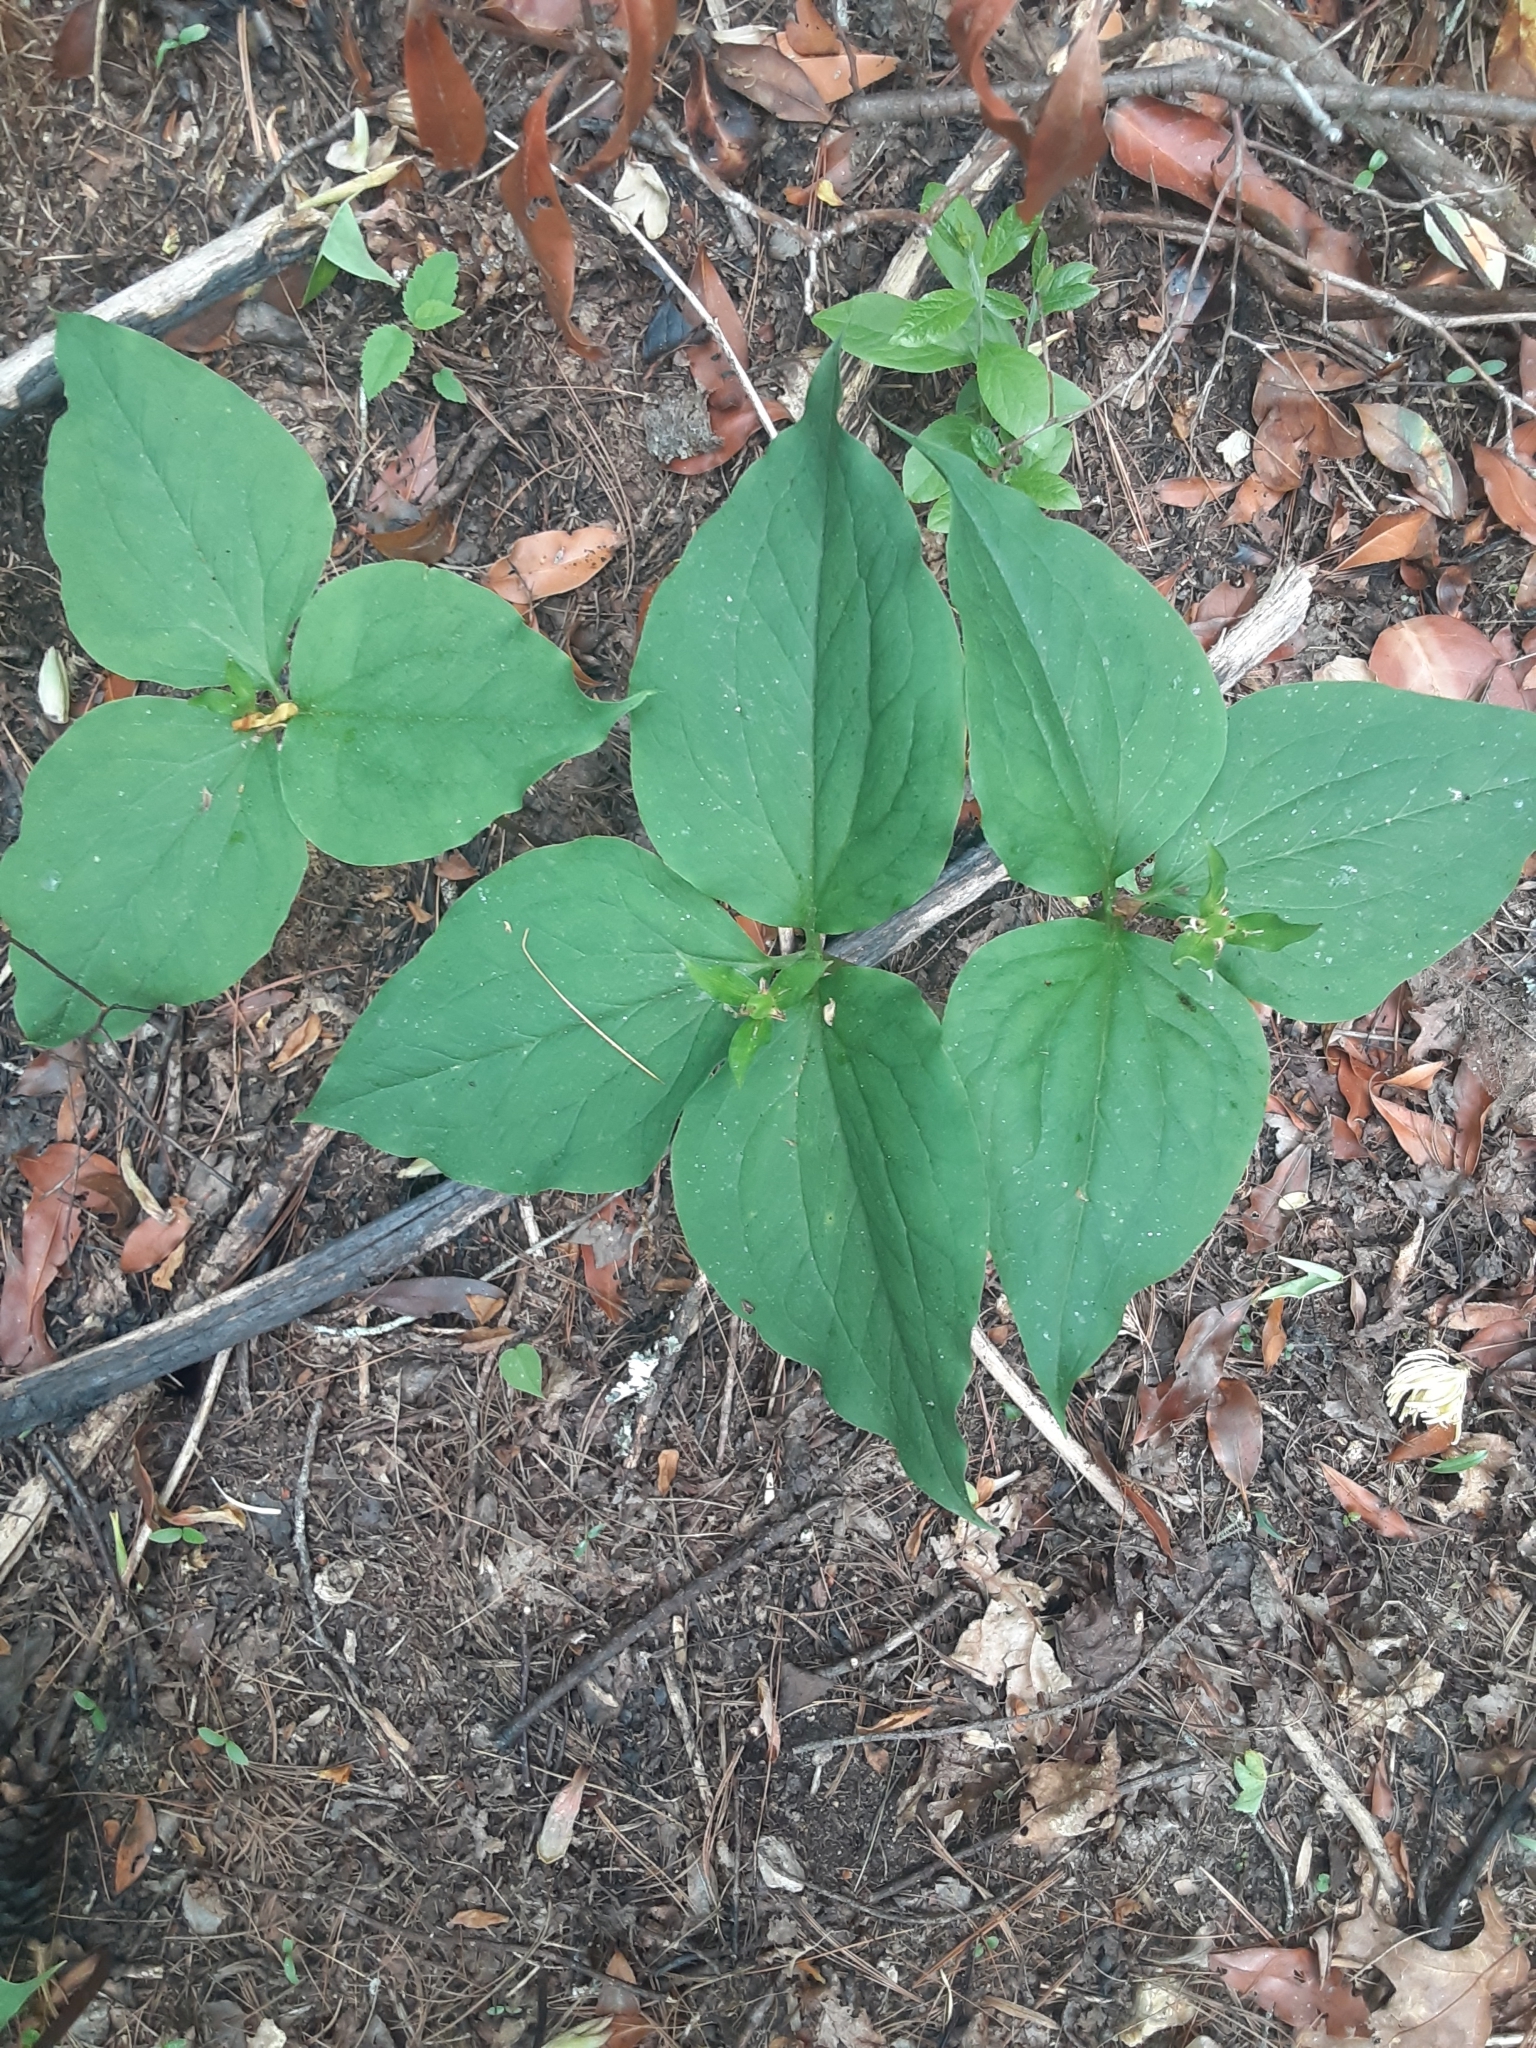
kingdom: Plantae
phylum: Tracheophyta
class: Liliopsida
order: Liliales
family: Melanthiaceae
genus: Trillium
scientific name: Trillium undulatum
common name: Paint trillium
